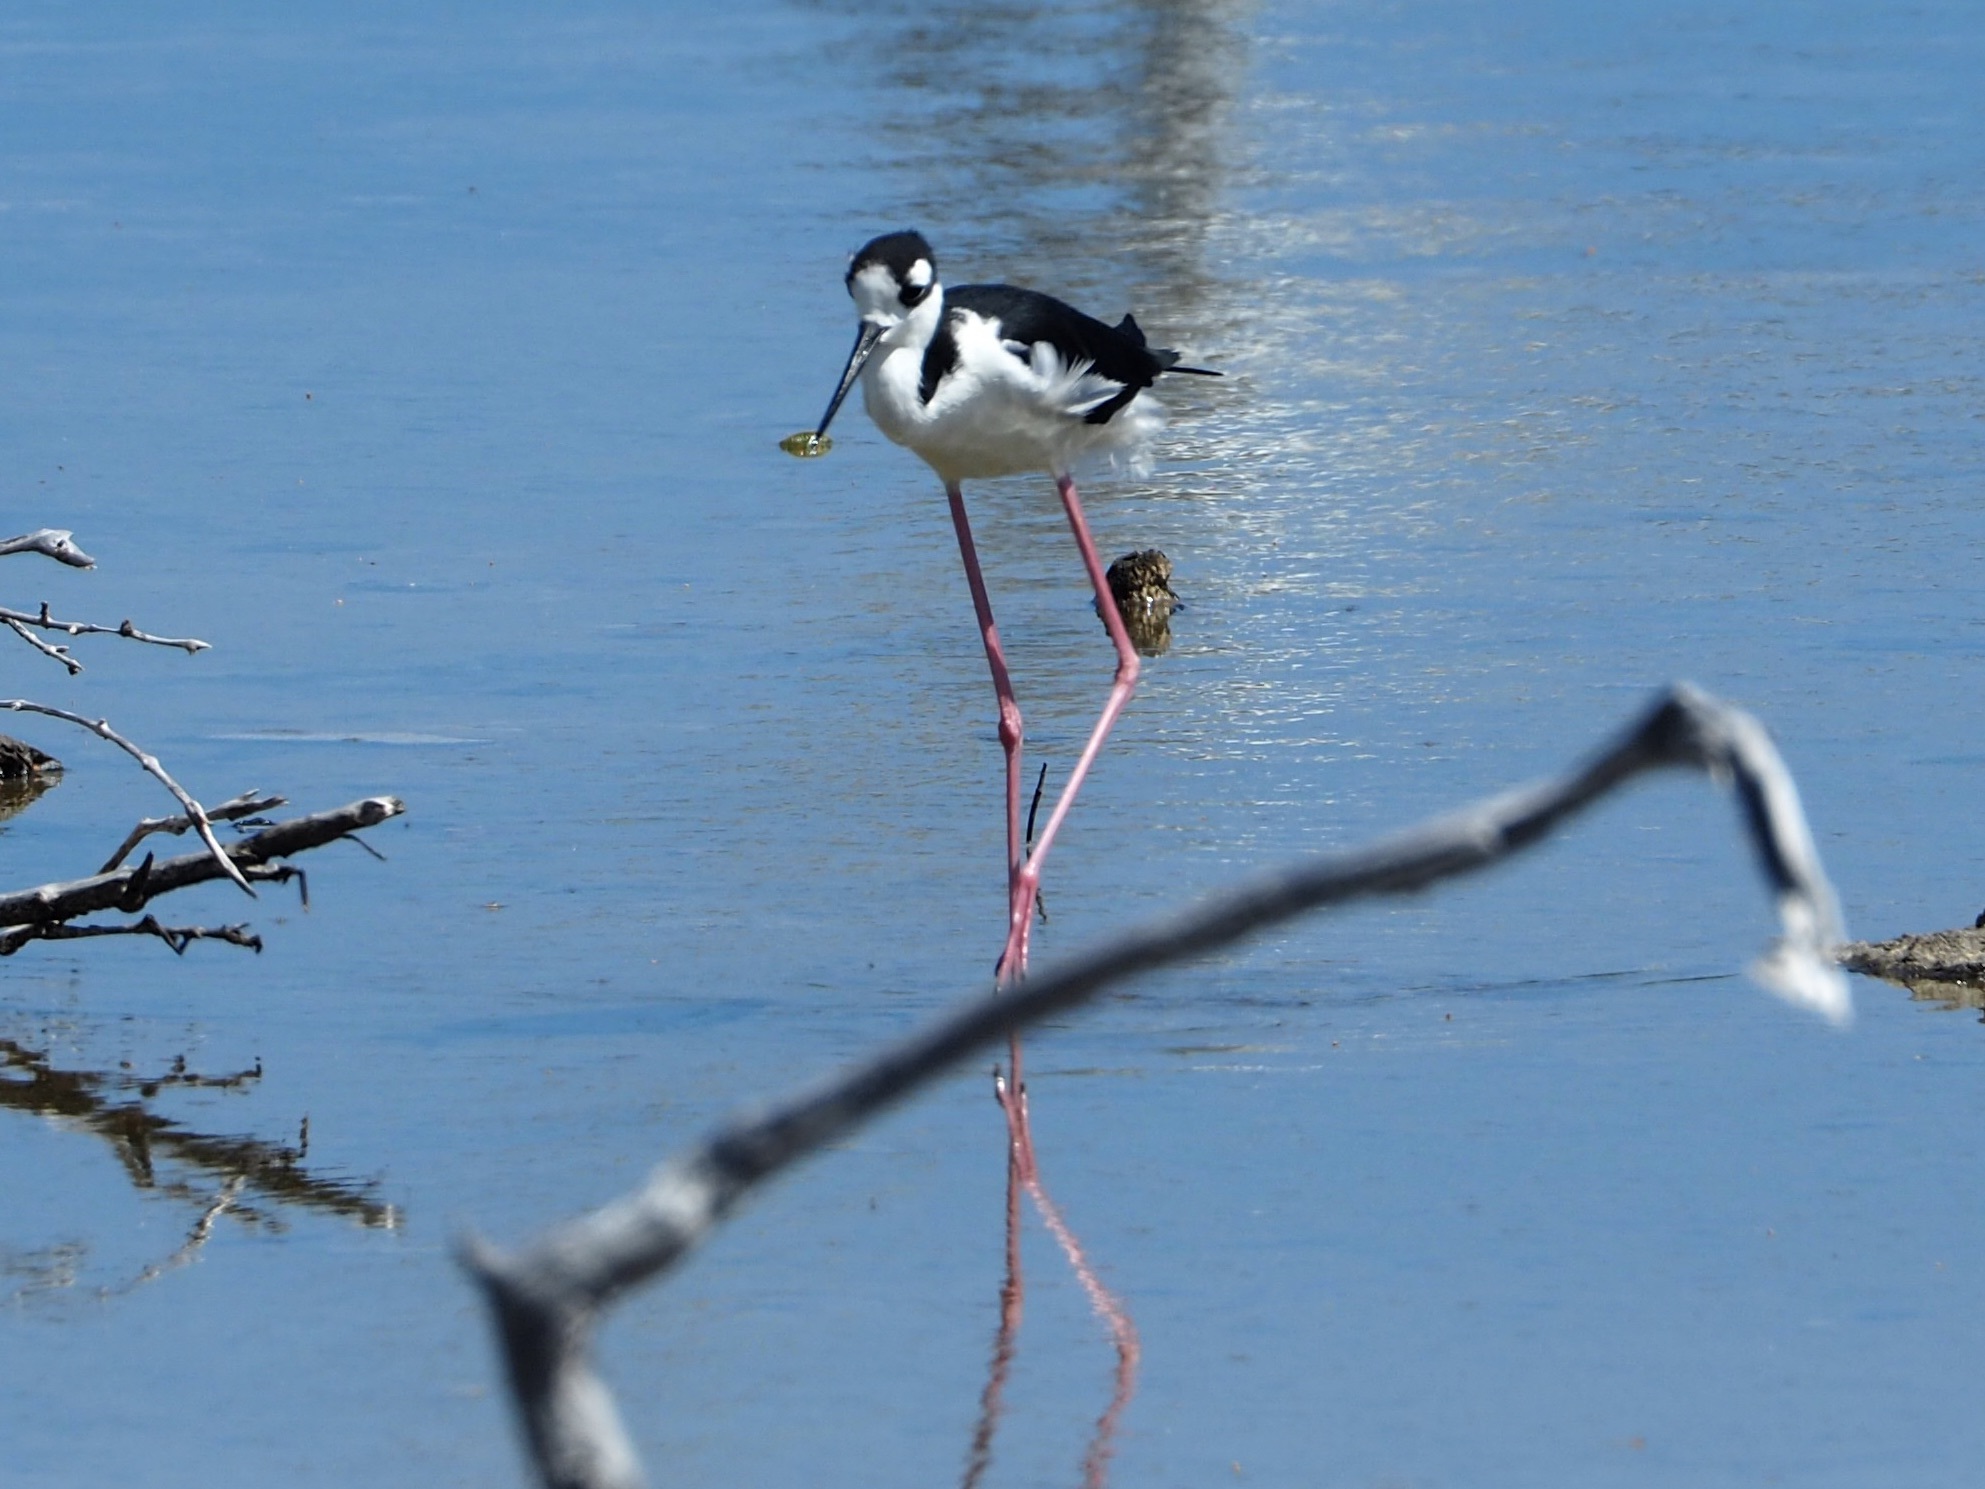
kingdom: Animalia
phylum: Chordata
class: Aves
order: Charadriiformes
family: Recurvirostridae
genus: Himantopus
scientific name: Himantopus mexicanus
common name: Black-necked stilt
